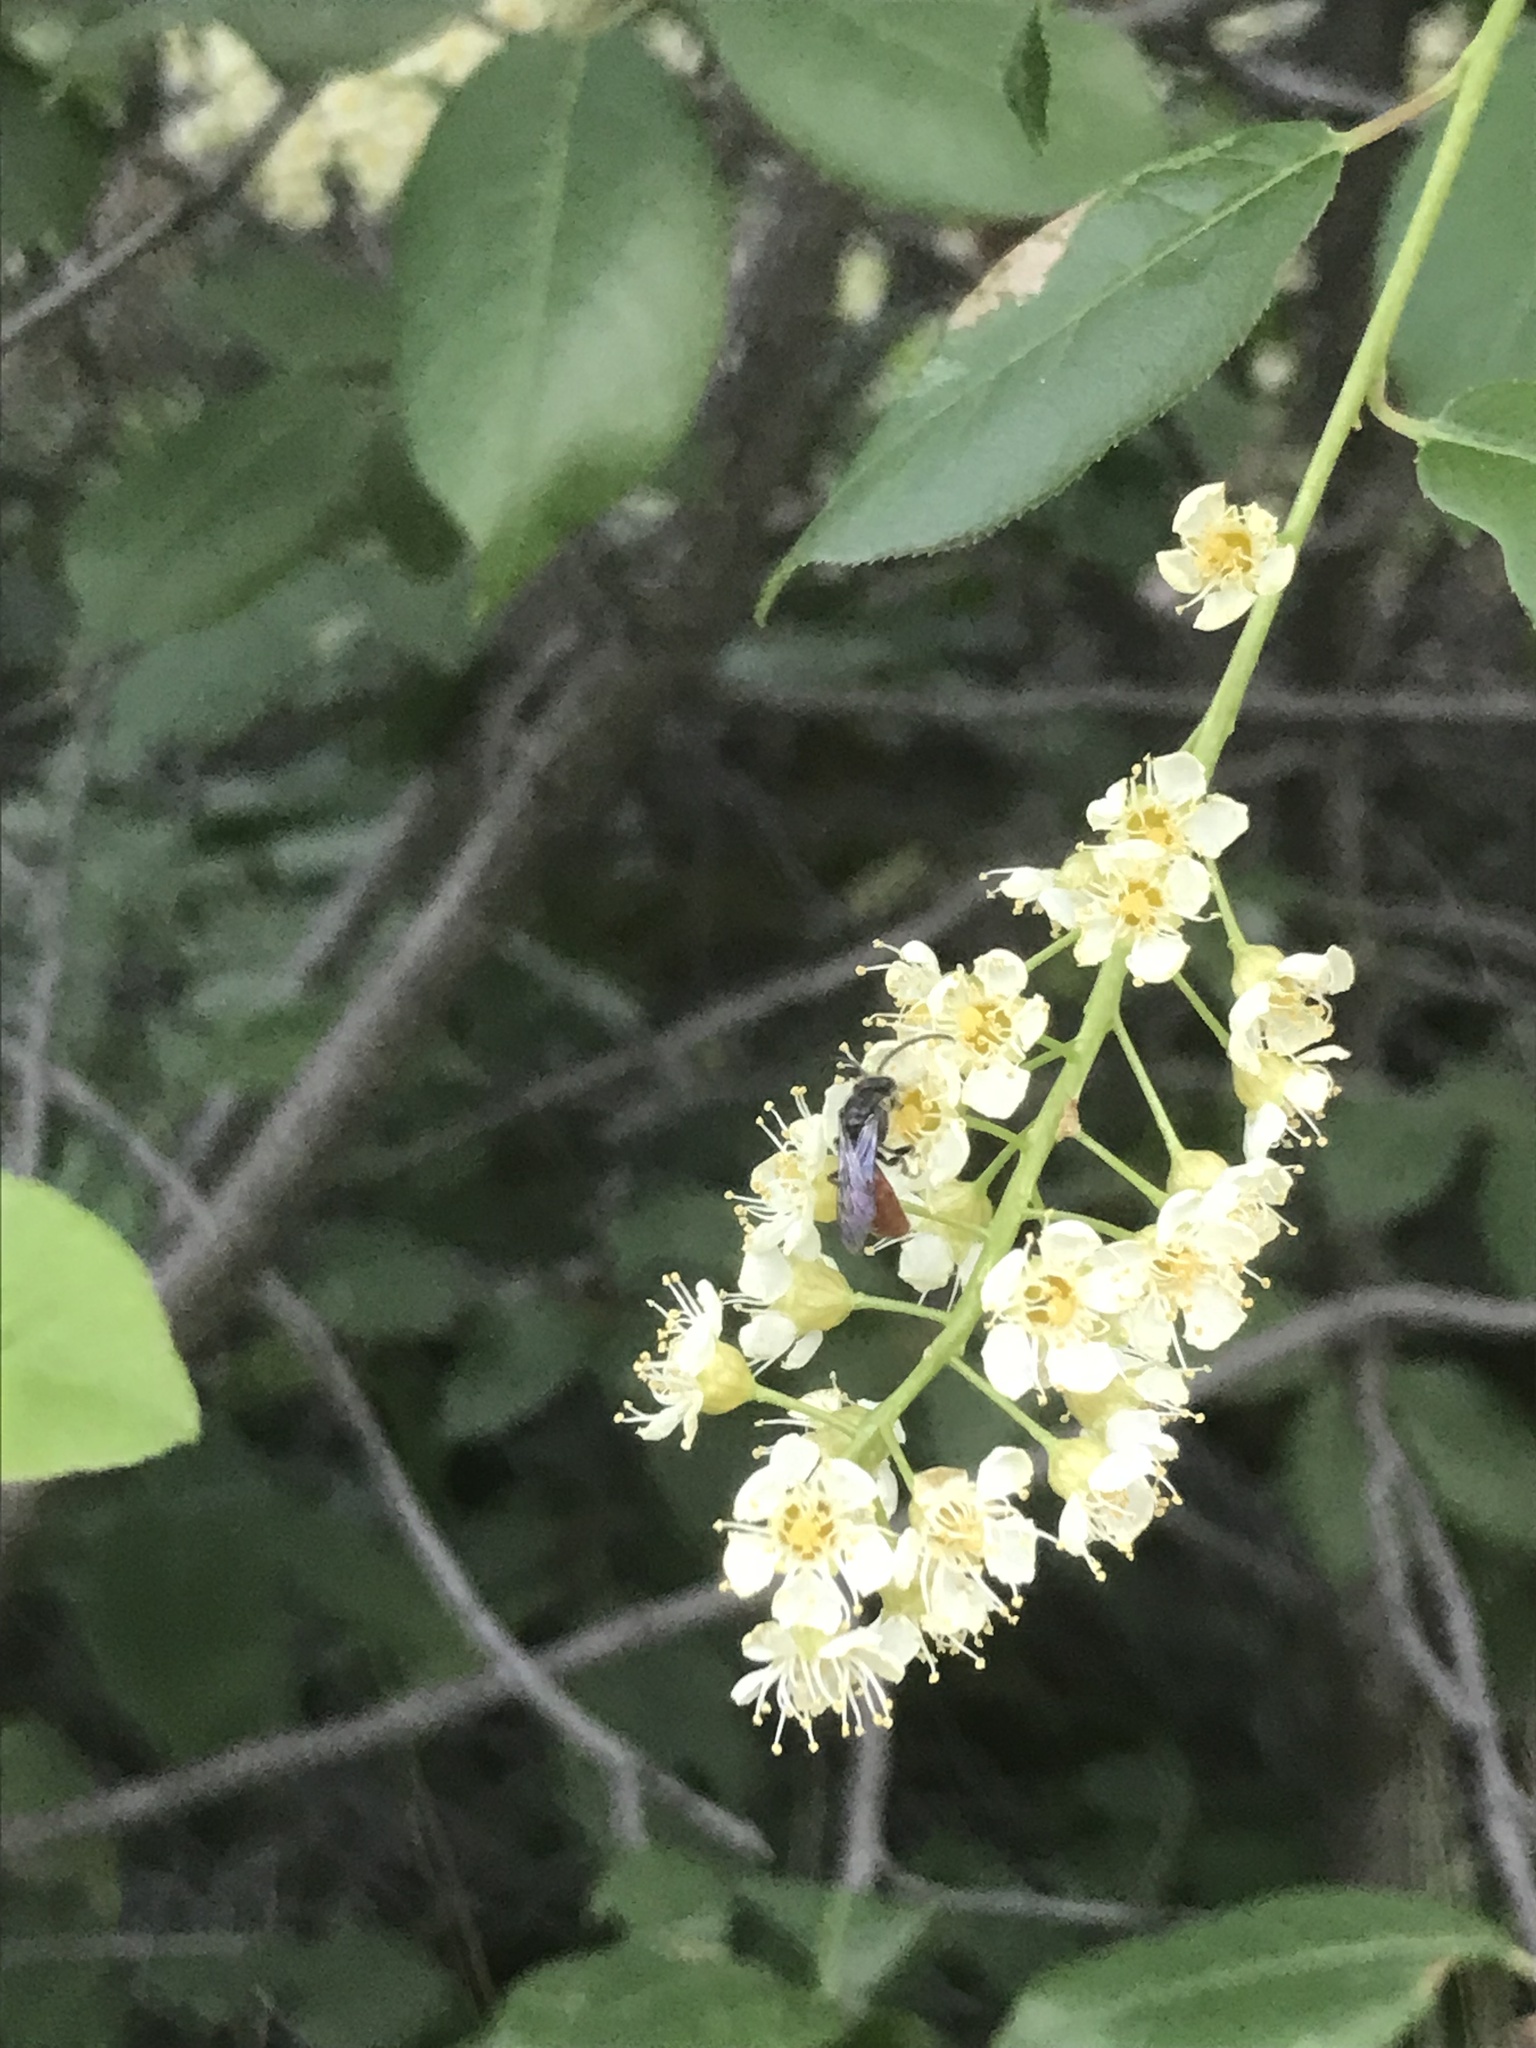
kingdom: Animalia
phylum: Arthropoda
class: Insecta
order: Hymenoptera
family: Halictidae
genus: Sphecodes
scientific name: Sphecodes
